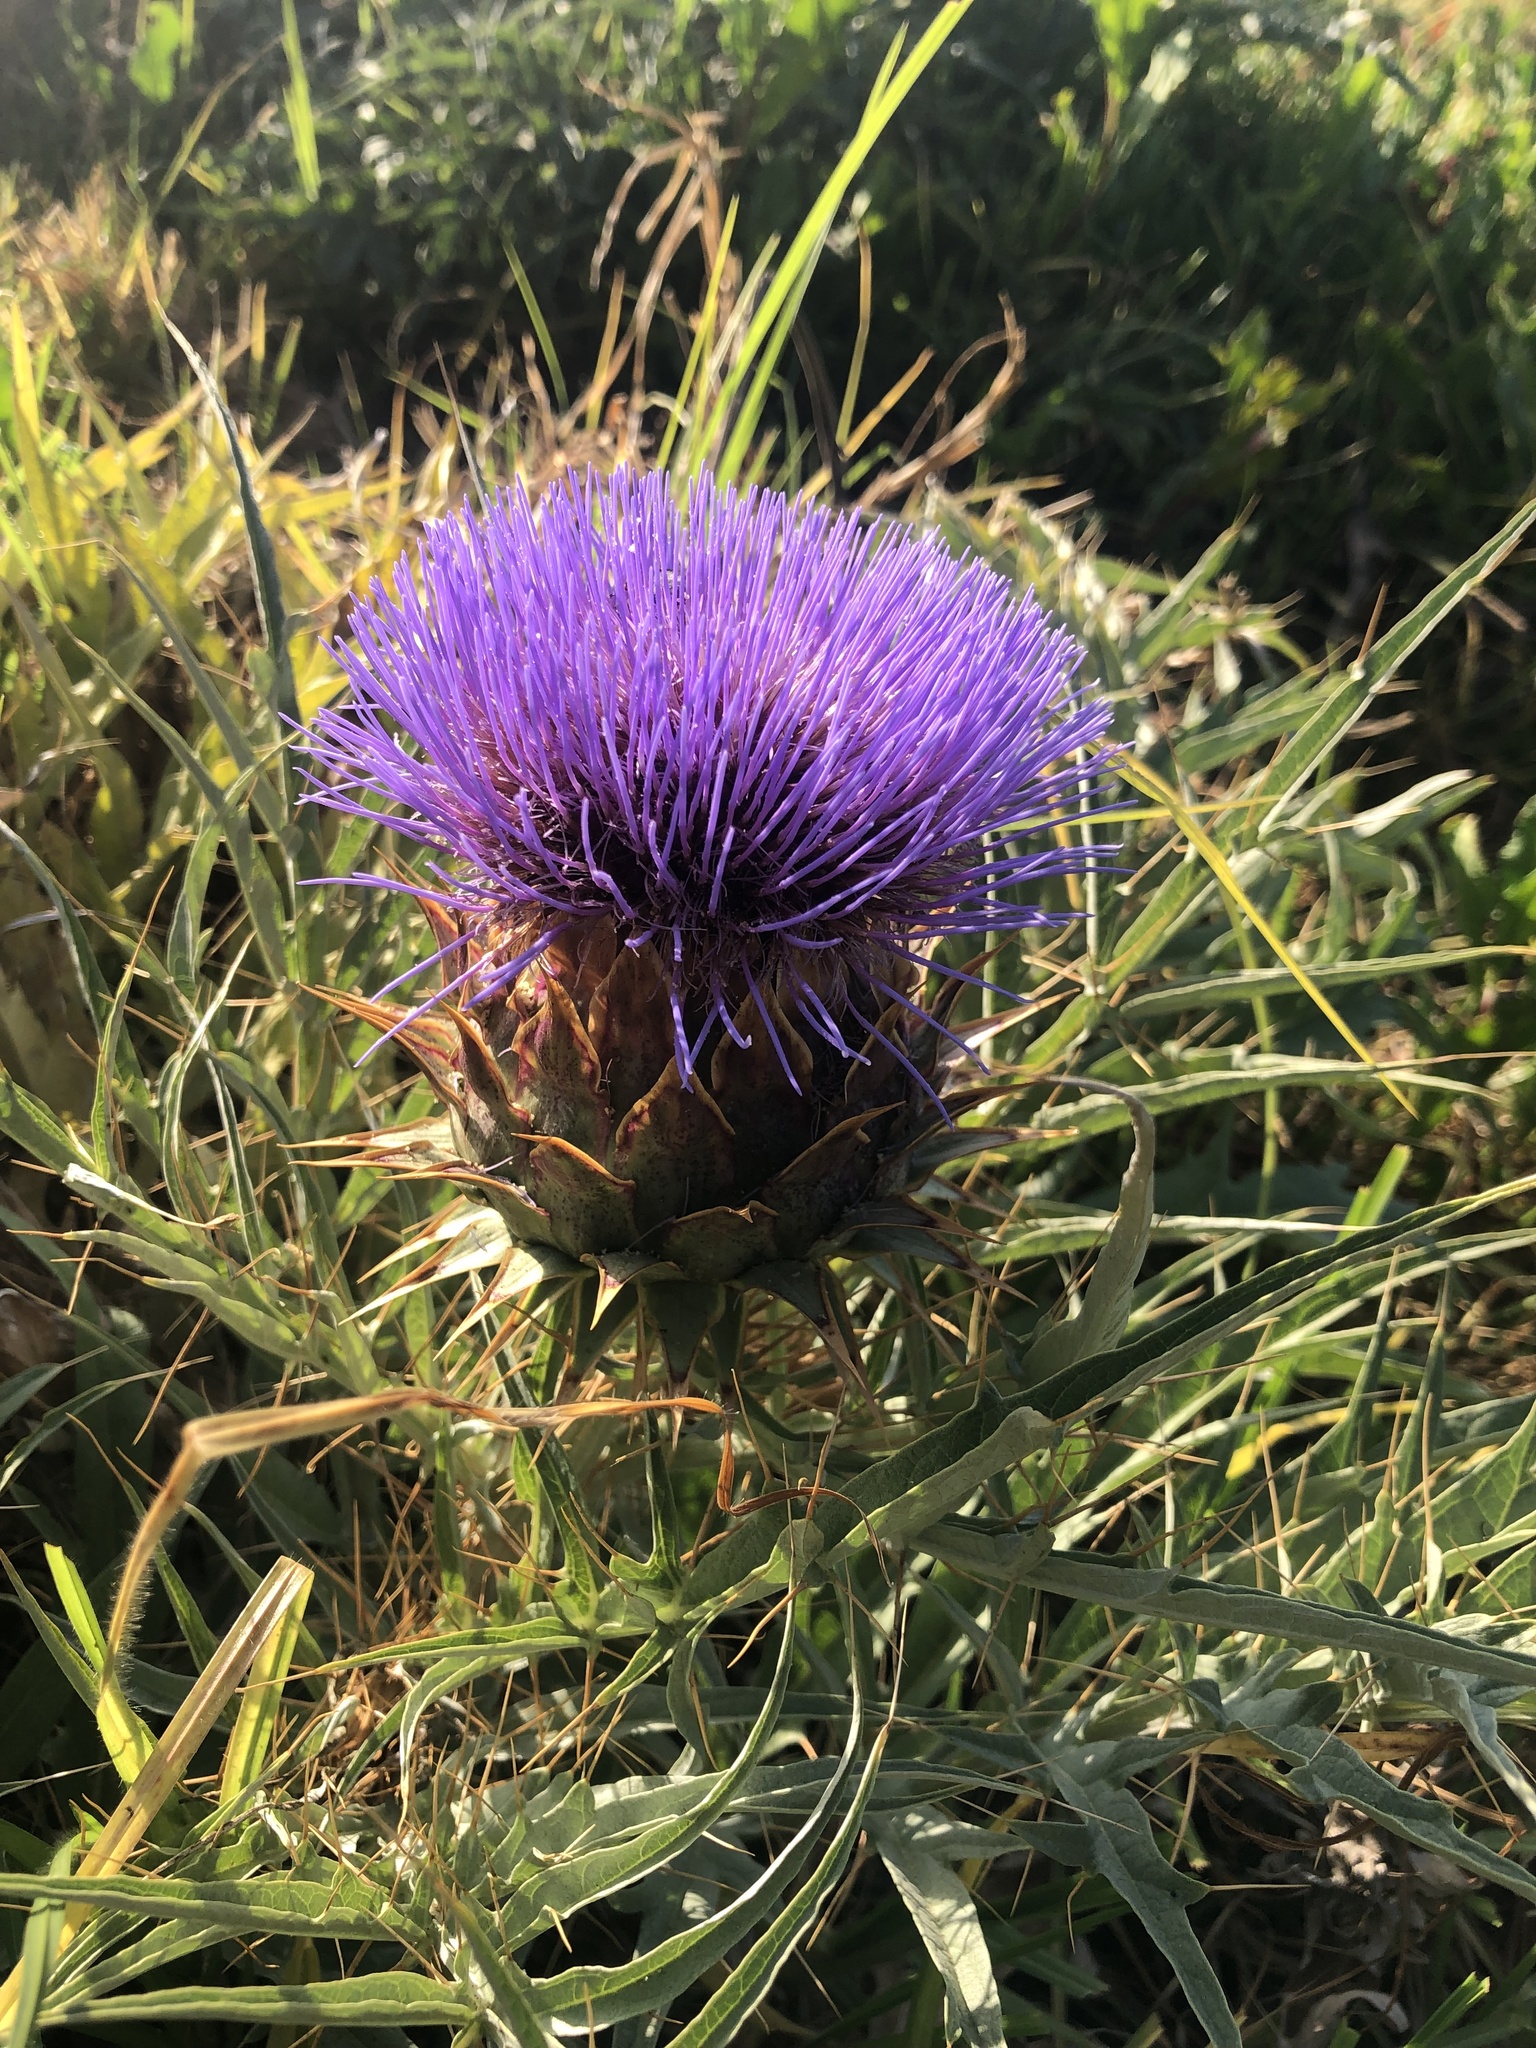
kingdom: Plantae
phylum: Tracheophyta
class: Magnoliopsida
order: Asterales
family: Asteraceae
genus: Cynara
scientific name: Cynara cardunculus
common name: Globe artichoke
